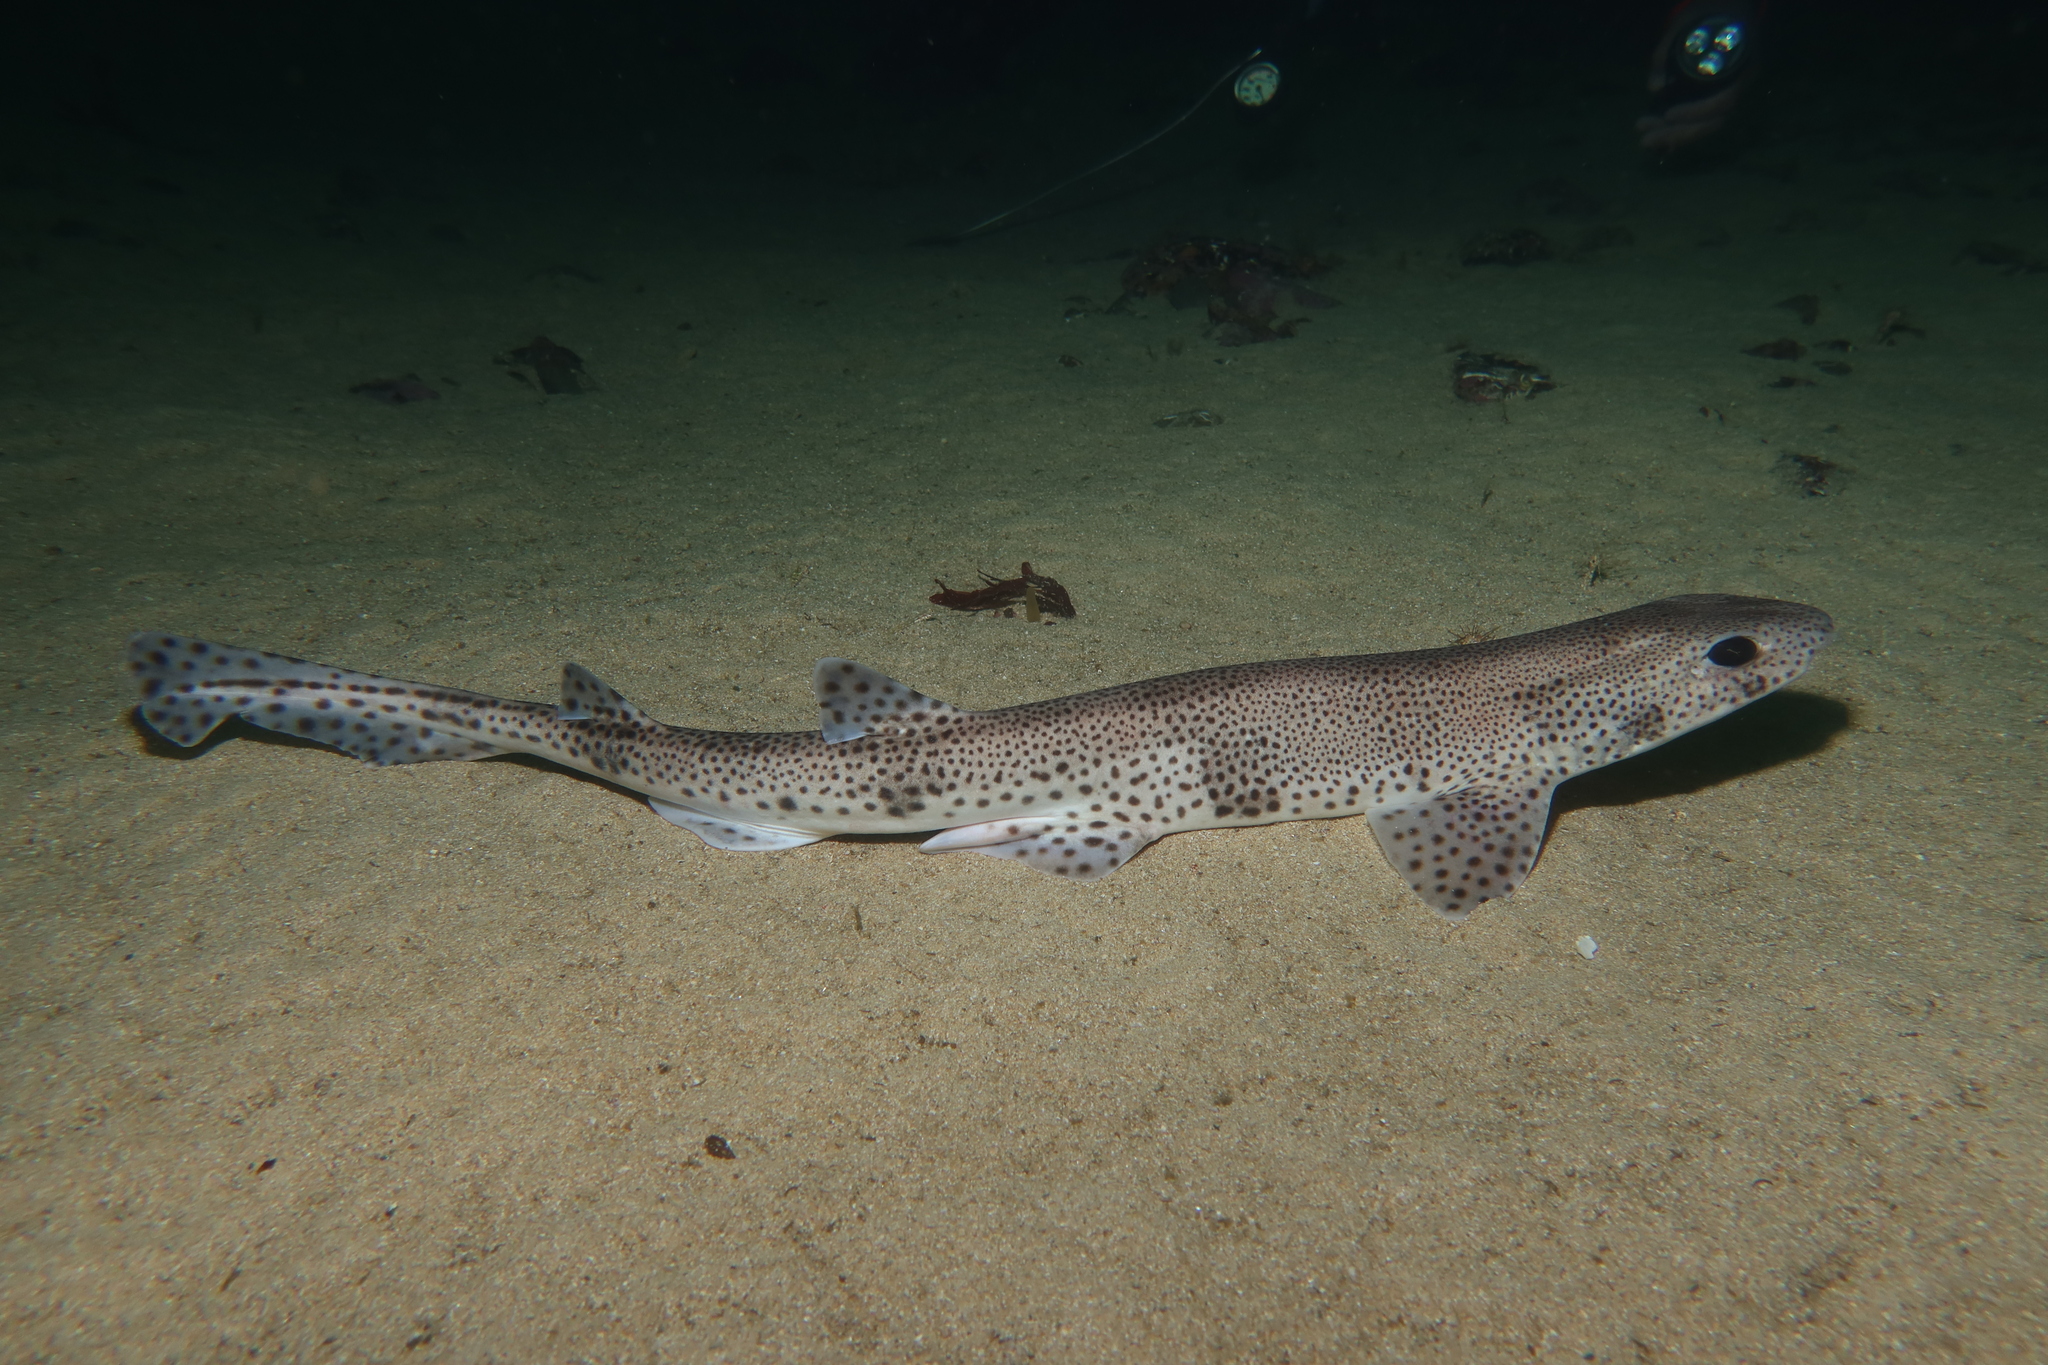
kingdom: Animalia
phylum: Chordata
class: Elasmobranchii
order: Carcharhiniformes
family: Scyliorhinidae
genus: Scyliorhinus
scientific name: Scyliorhinus canicula
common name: Lesser spotted dogfish
